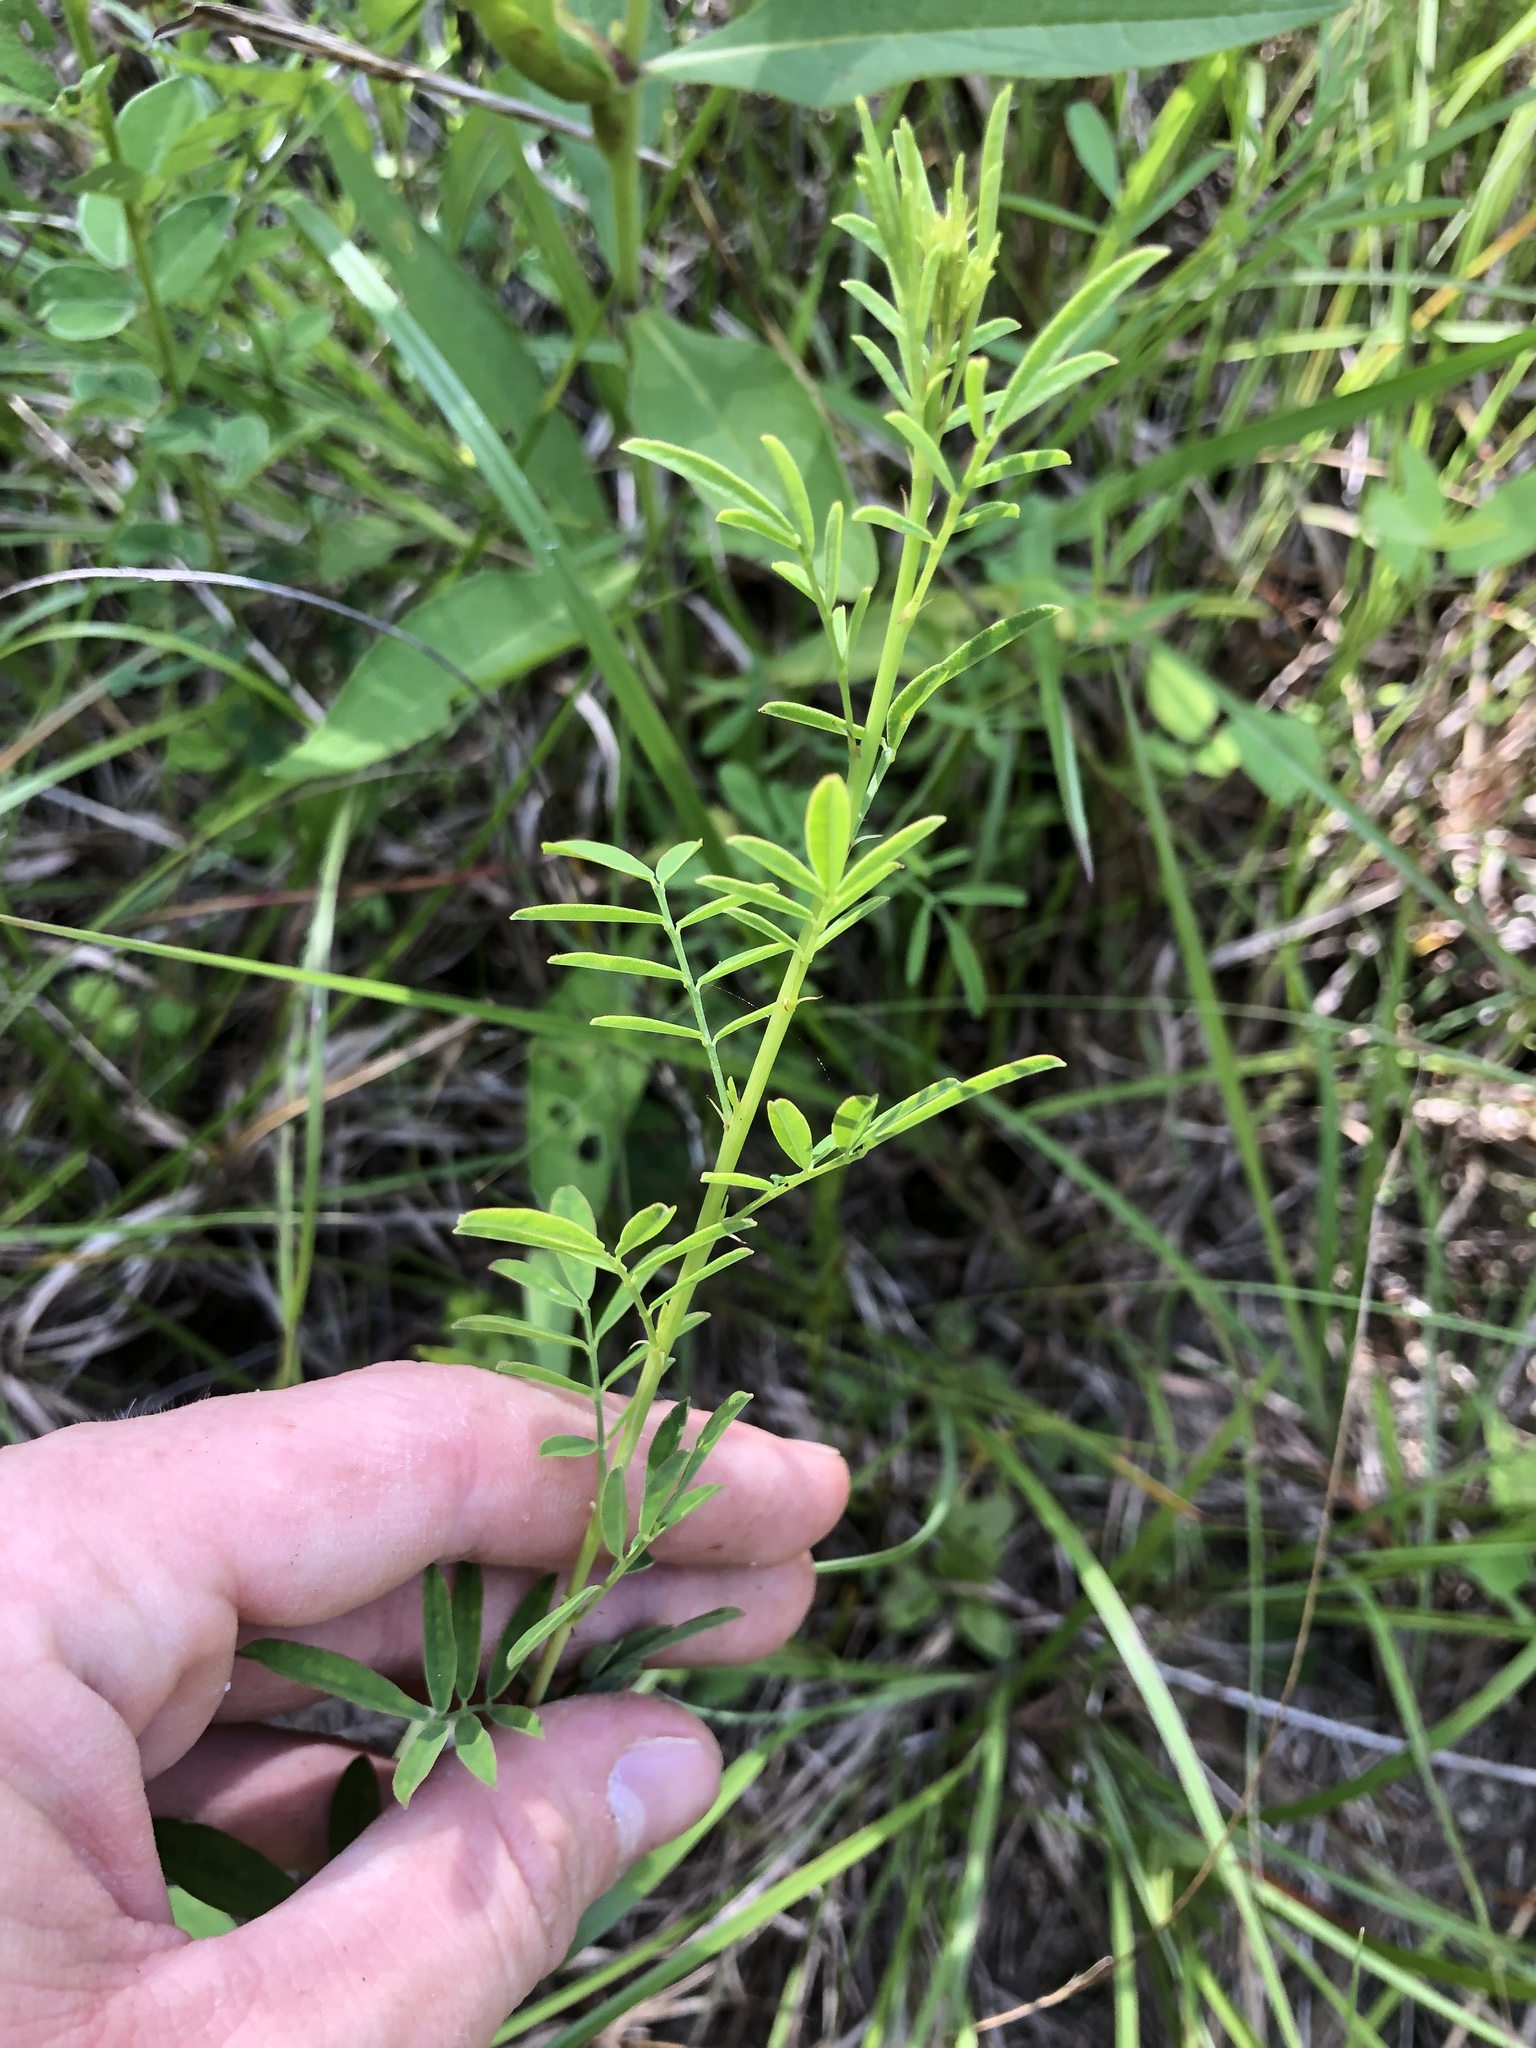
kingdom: Plantae
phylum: Tracheophyta
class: Magnoliopsida
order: Fabales
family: Fabaceae
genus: Dalea
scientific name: Dalea candida
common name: White prairie-clover
